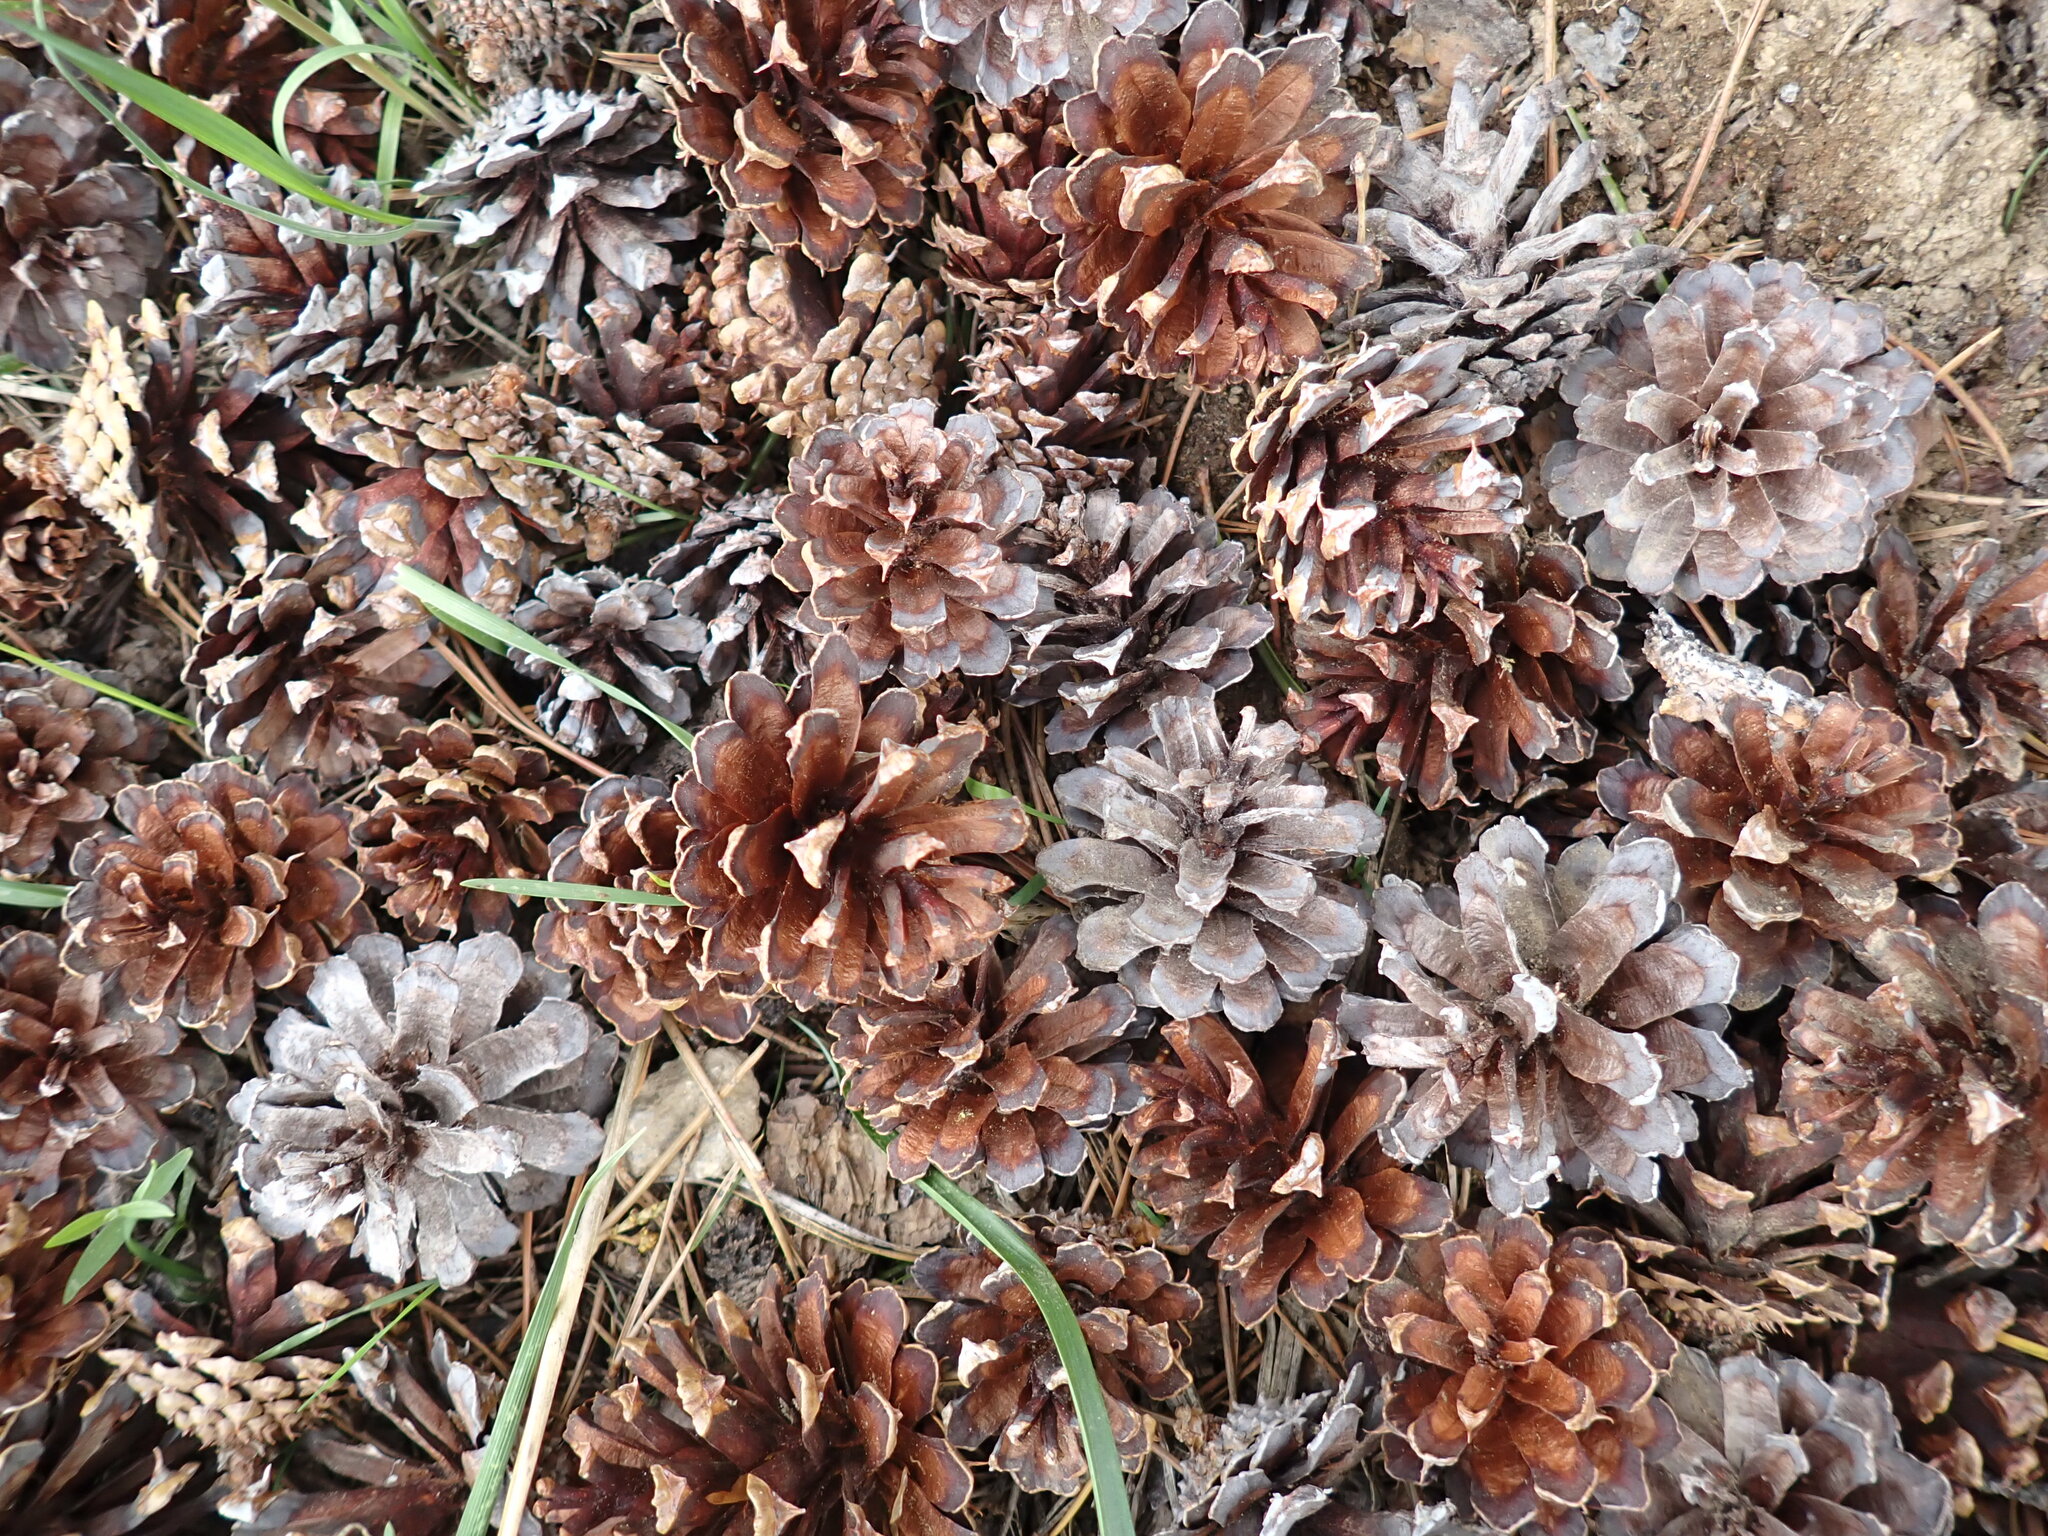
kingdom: Plantae
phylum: Tracheophyta
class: Pinopsida
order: Pinales
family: Pinaceae
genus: Pinus
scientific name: Pinus contorta
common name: Lodgepole pine
